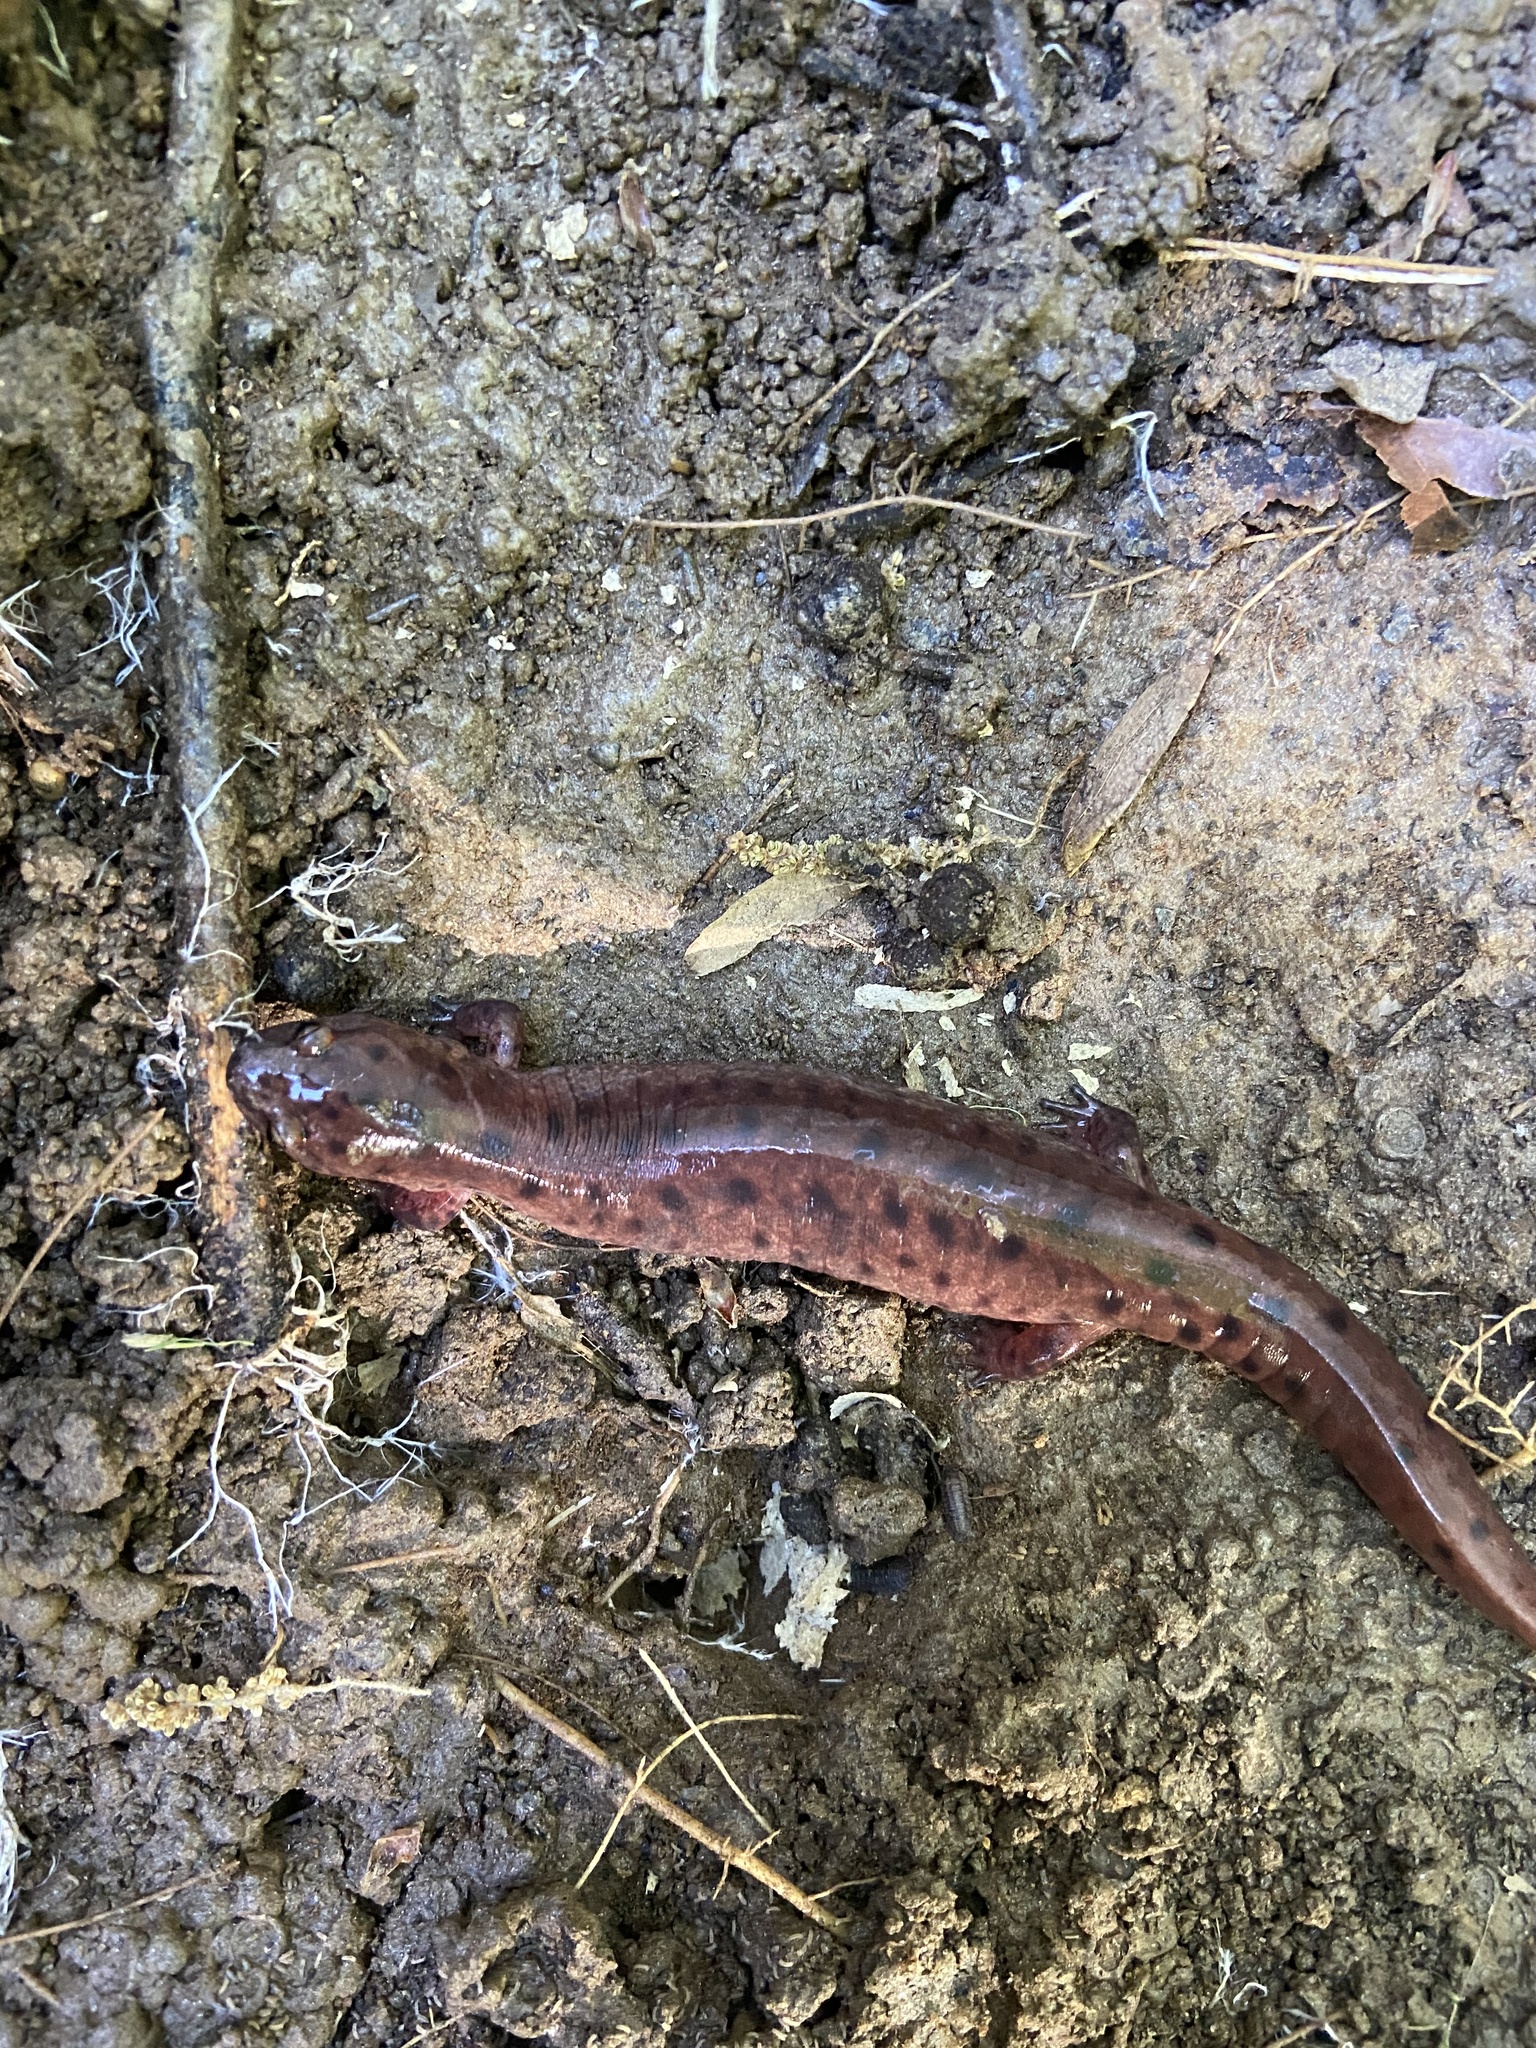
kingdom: Animalia
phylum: Chordata
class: Amphibia
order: Caudata
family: Plethodontidae
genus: Pseudotriton
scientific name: Pseudotriton ruber
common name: Red salamander
